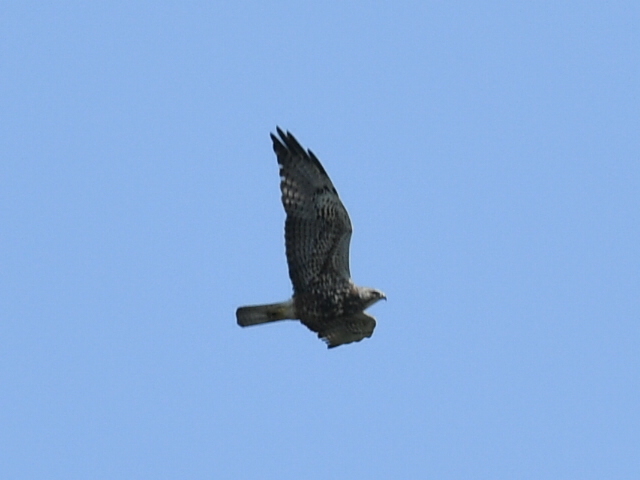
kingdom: Animalia
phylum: Chordata
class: Aves
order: Accipitriformes
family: Accipitridae
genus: Buteo
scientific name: Buteo swainsoni
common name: Swainson's hawk
